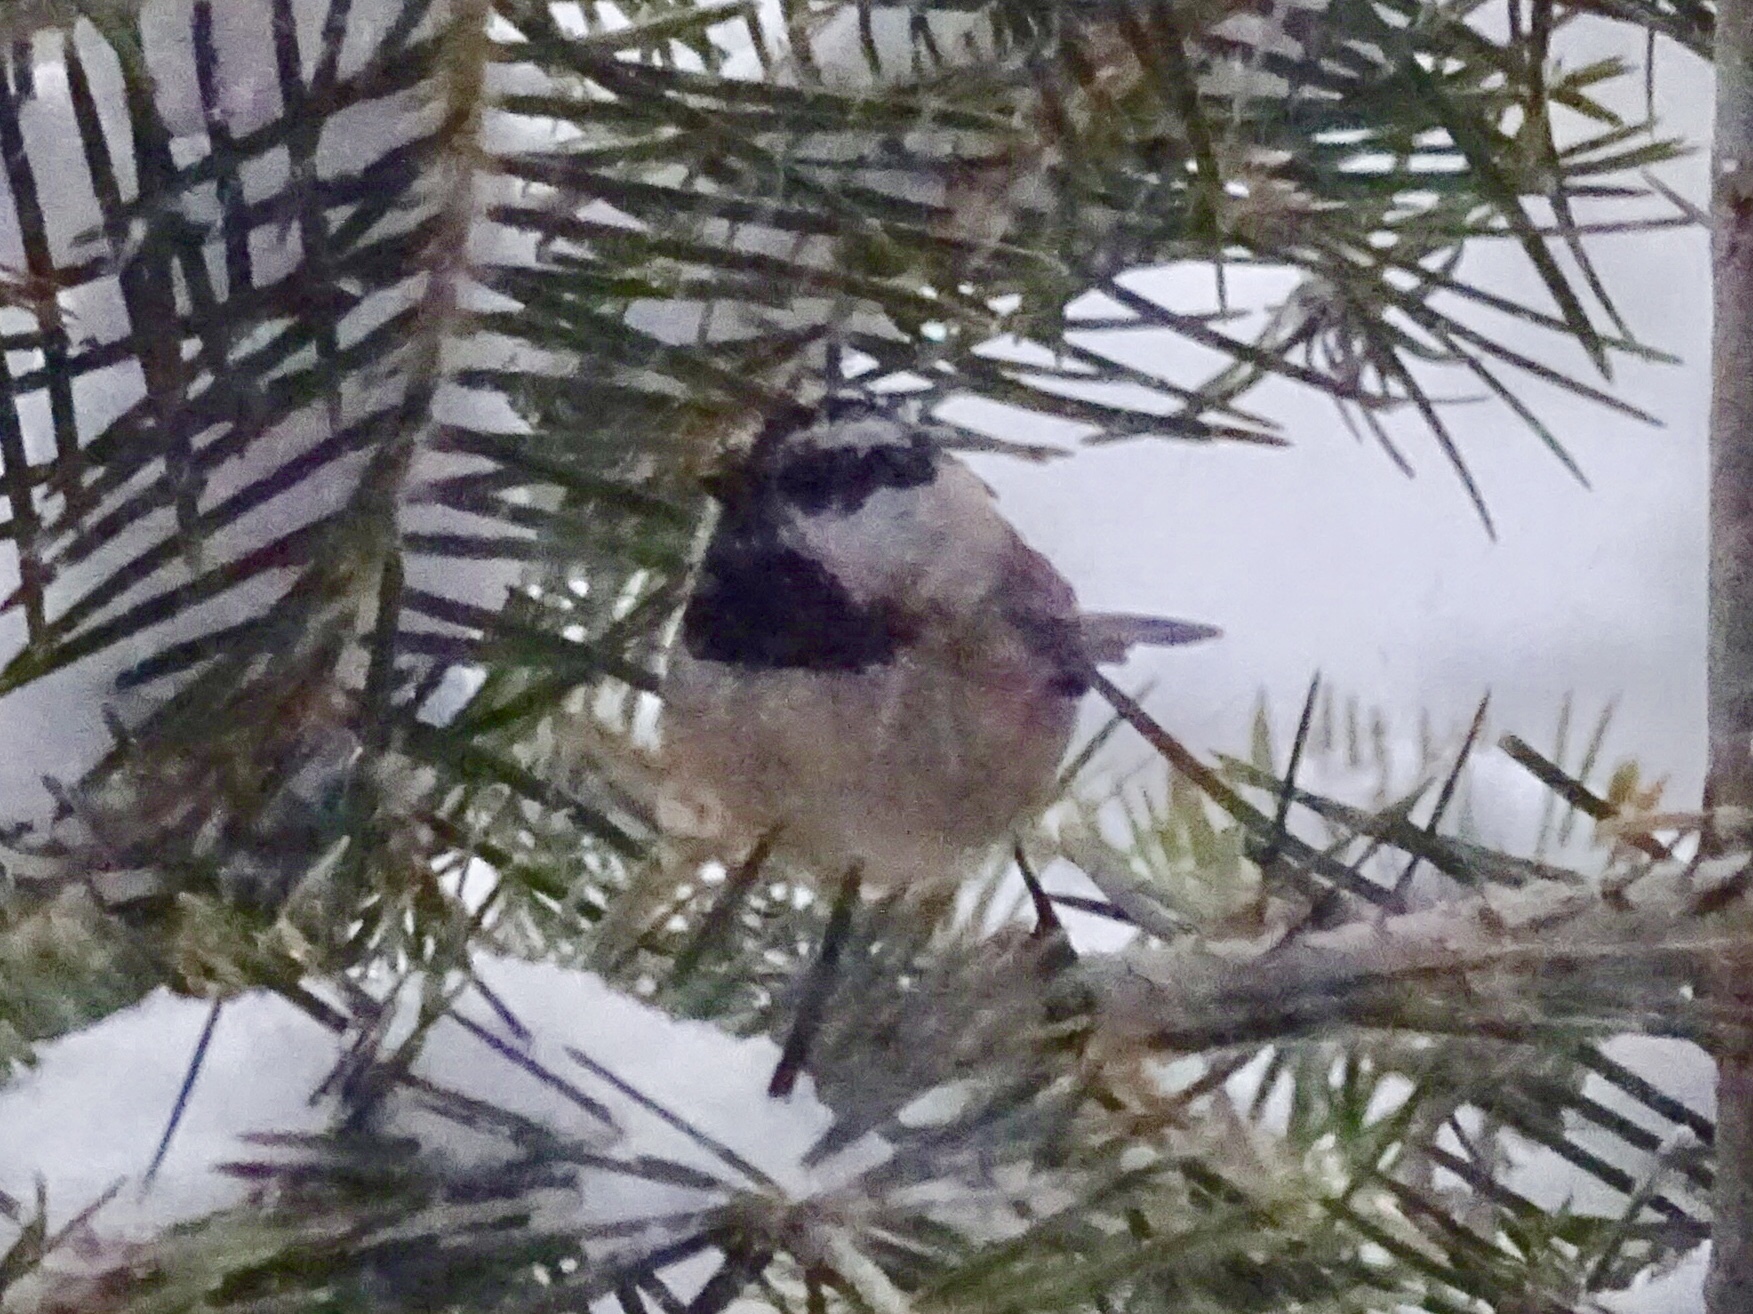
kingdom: Animalia
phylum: Chordata
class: Aves
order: Passeriformes
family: Paridae
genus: Poecile
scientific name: Poecile gambeli
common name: Mountain chickadee
